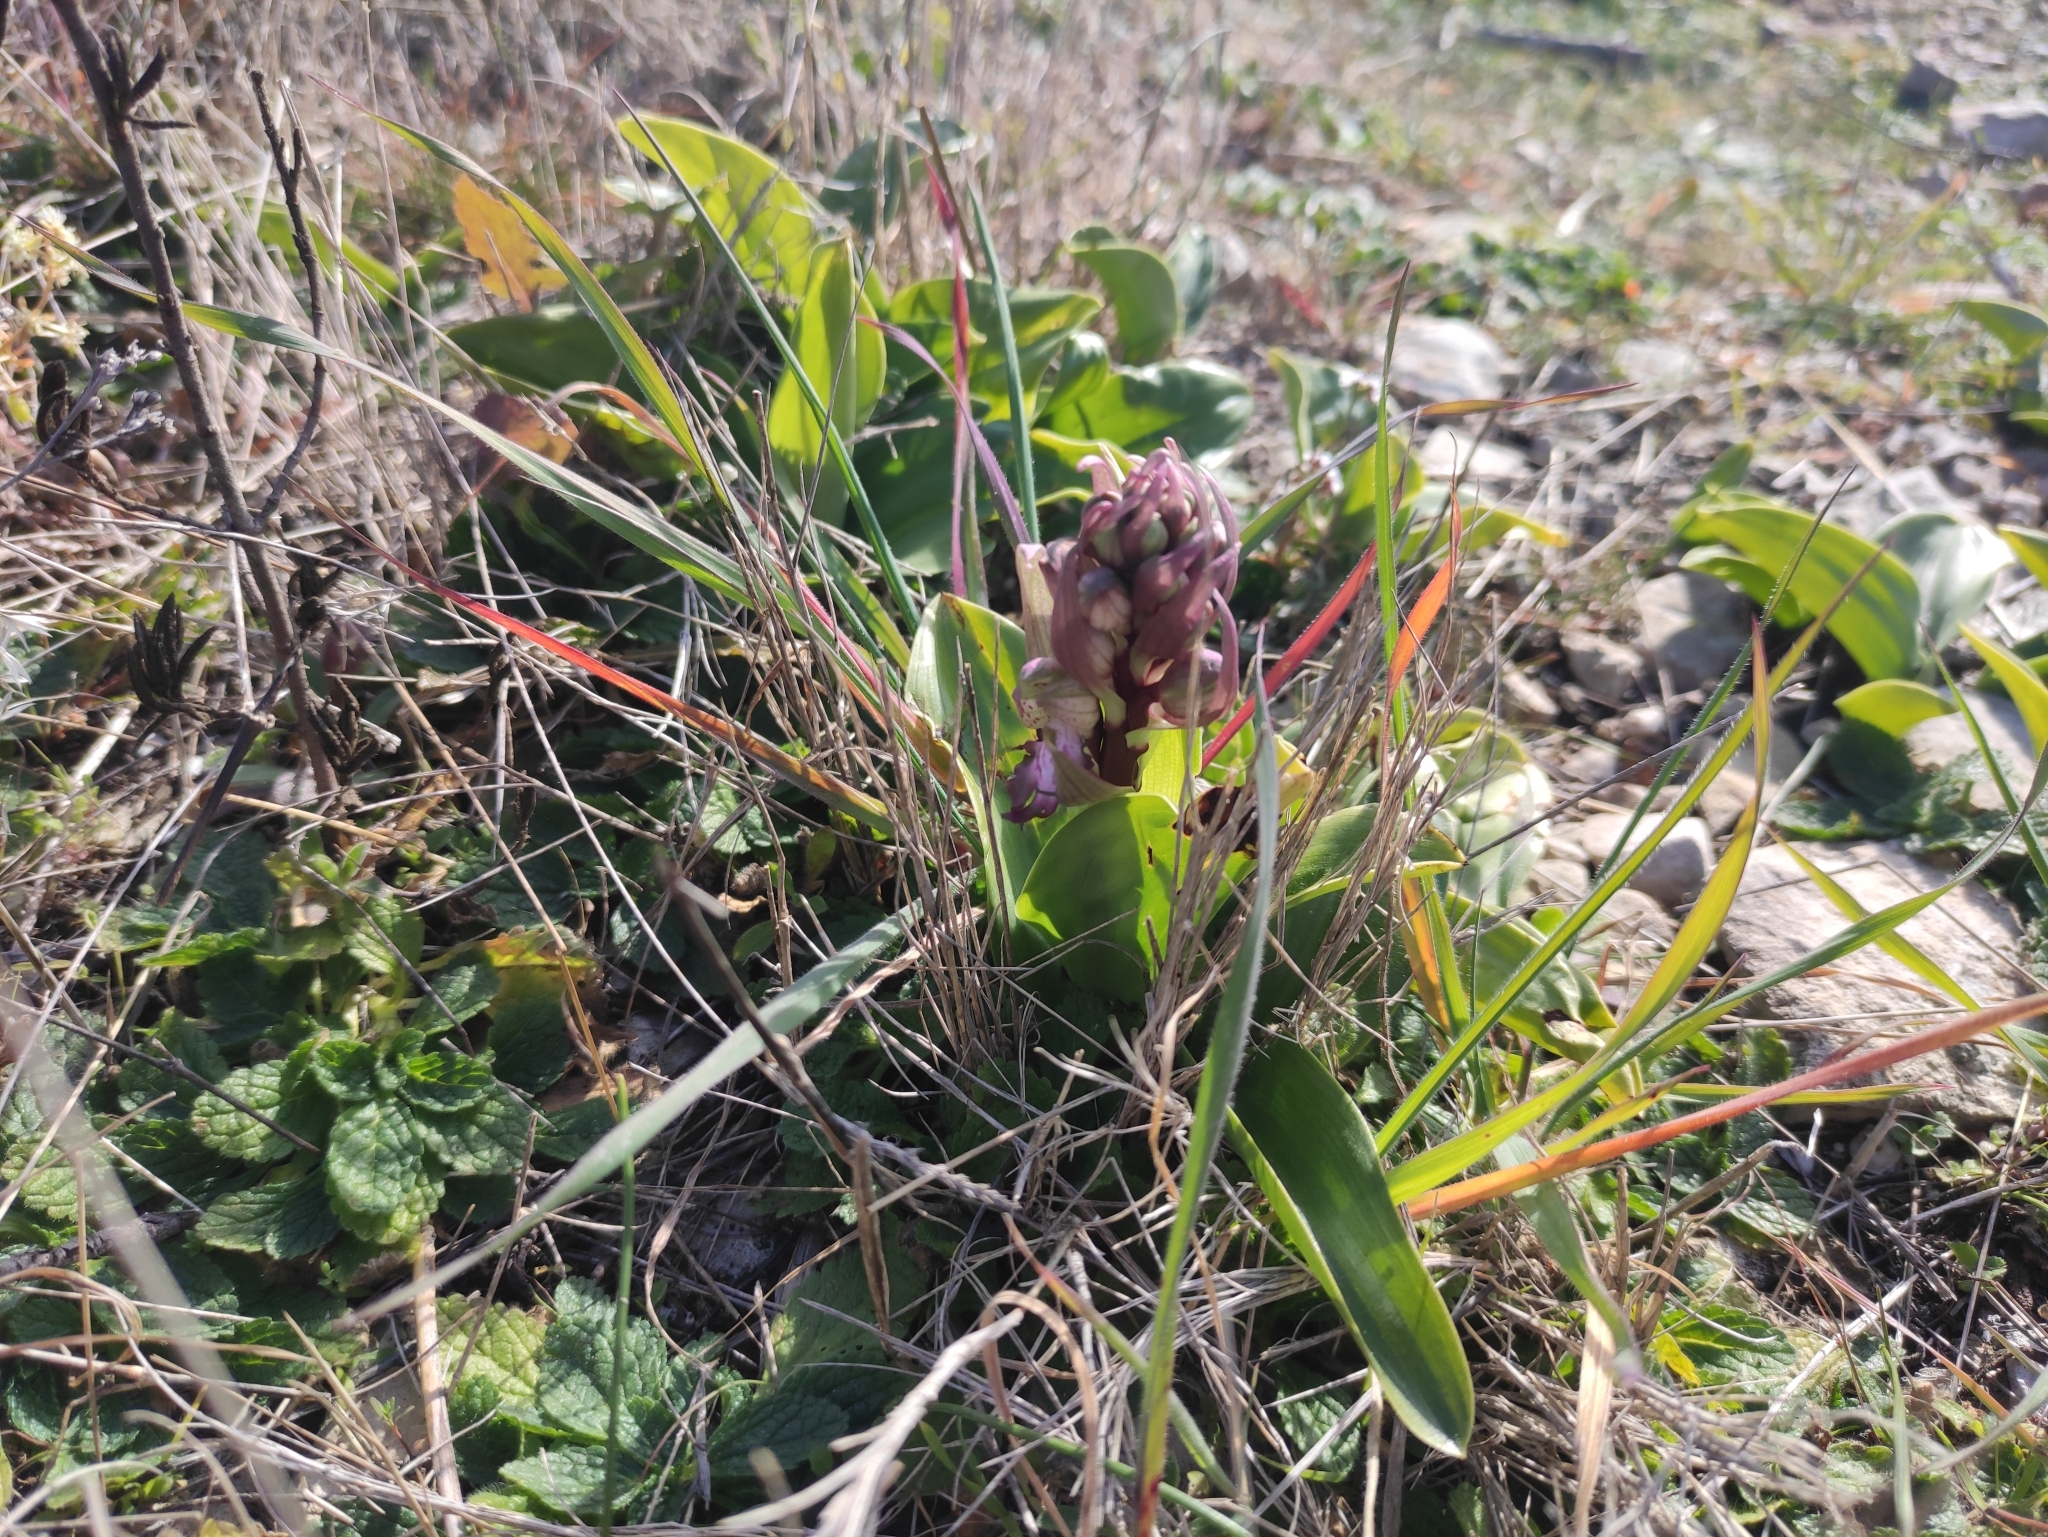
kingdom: Plantae
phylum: Tracheophyta
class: Liliopsida
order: Asparagales
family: Orchidaceae
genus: Himantoglossum
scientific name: Himantoglossum robertianum
